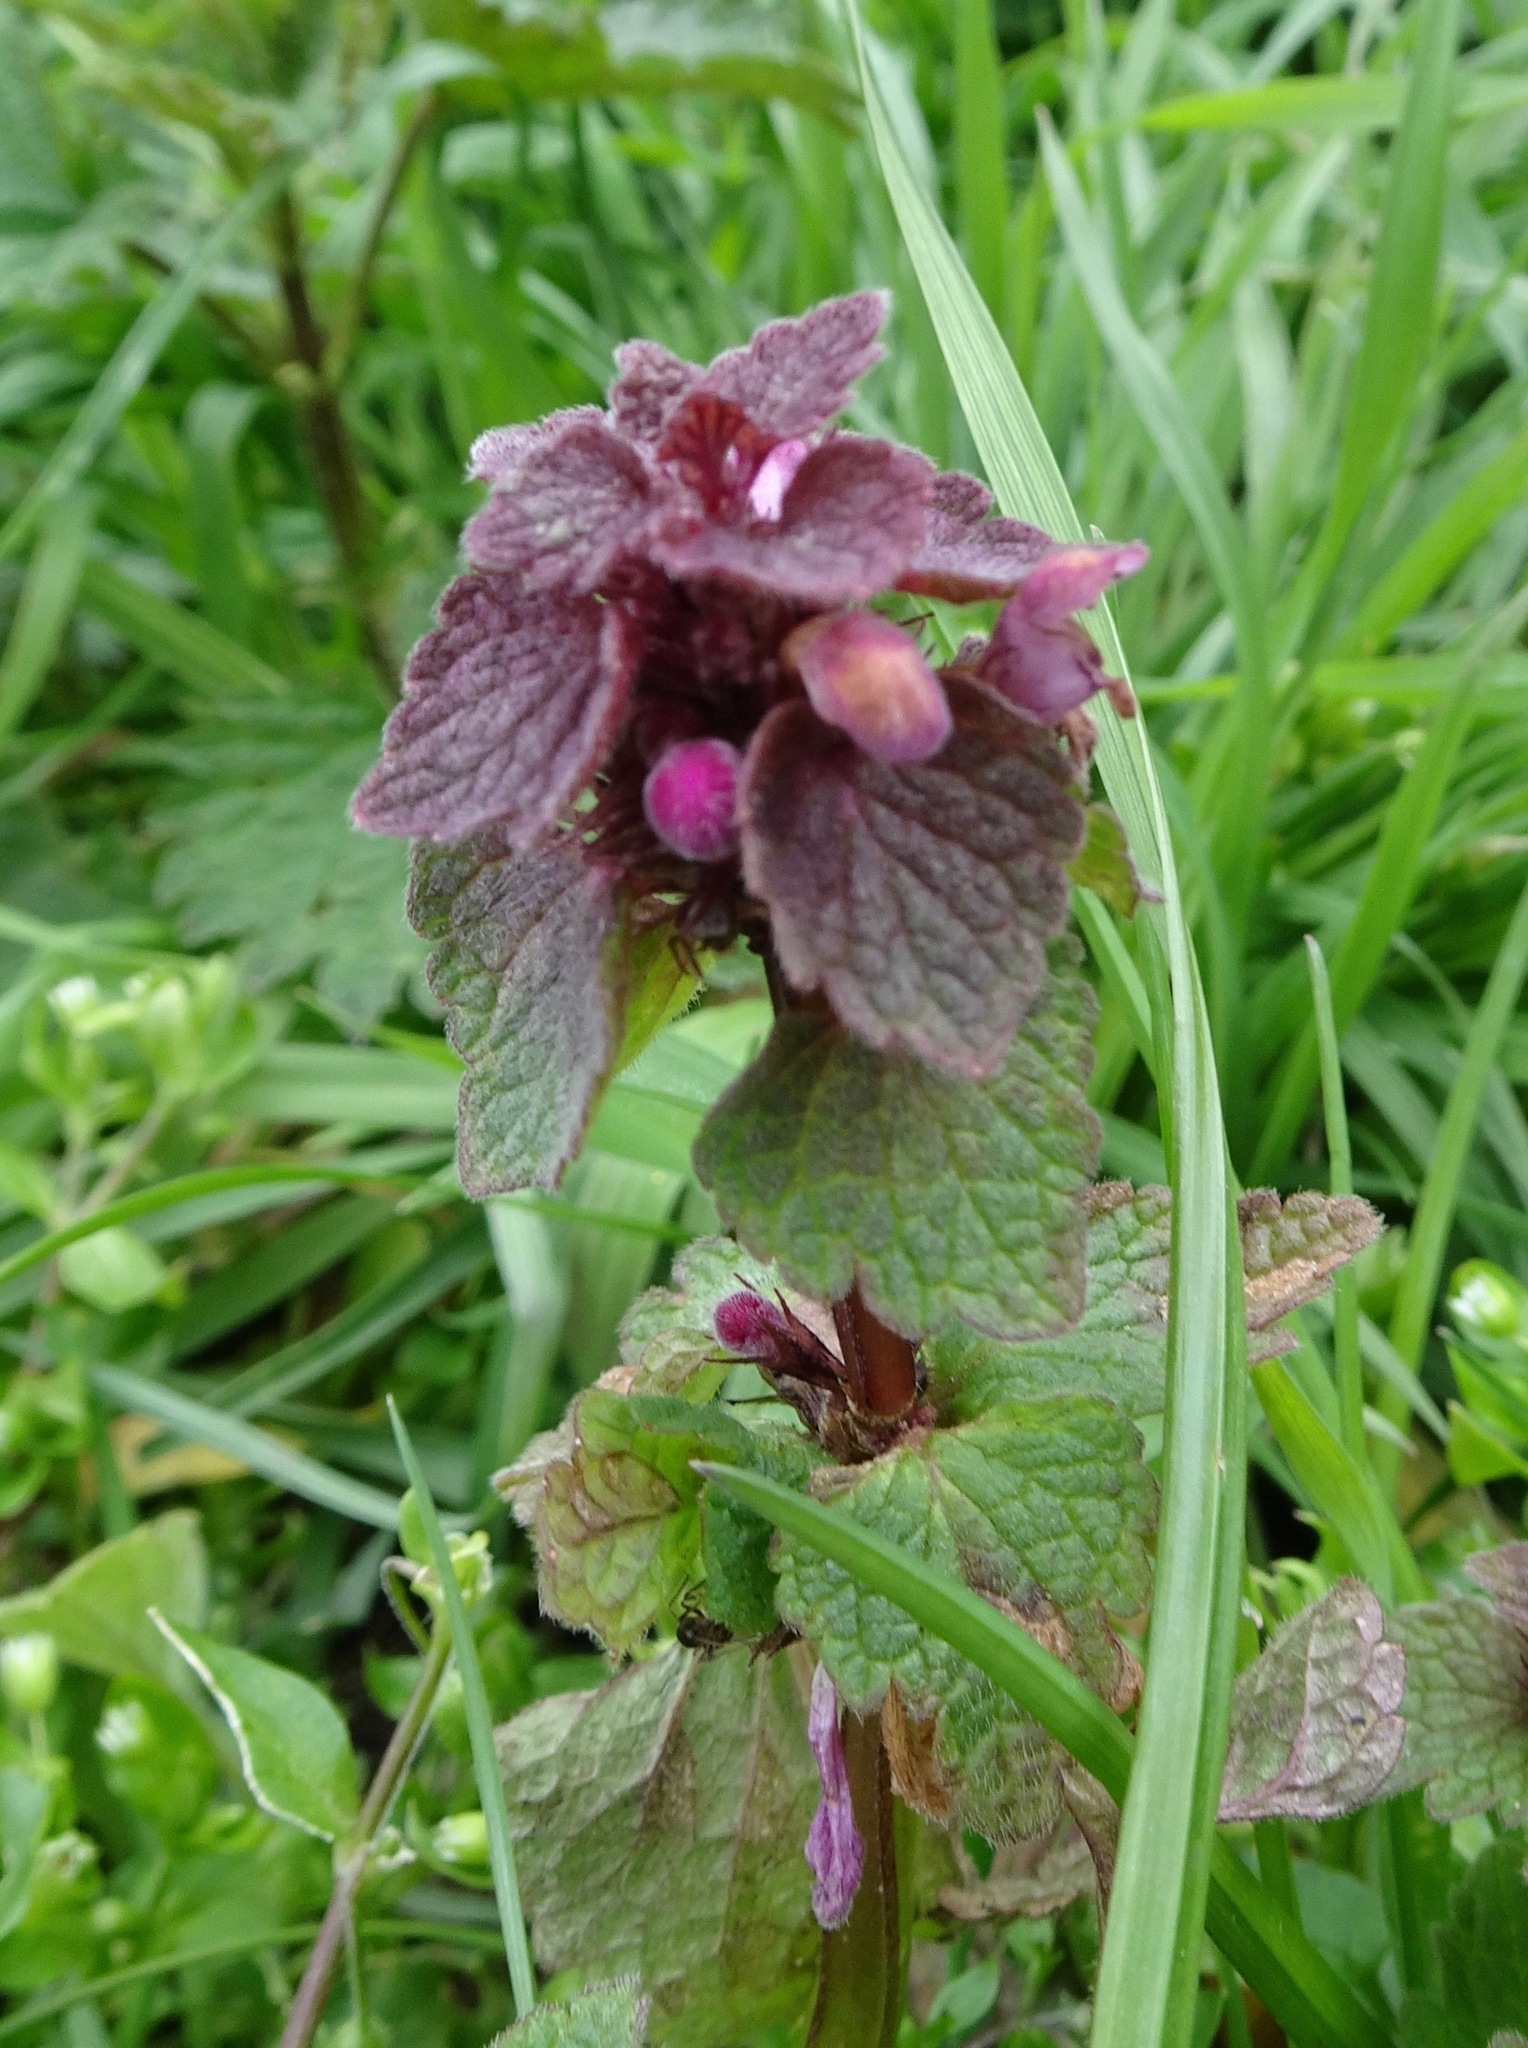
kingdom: Plantae
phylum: Tracheophyta
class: Magnoliopsida
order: Lamiales
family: Lamiaceae
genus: Lamium
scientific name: Lamium purpureum
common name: Red dead-nettle
